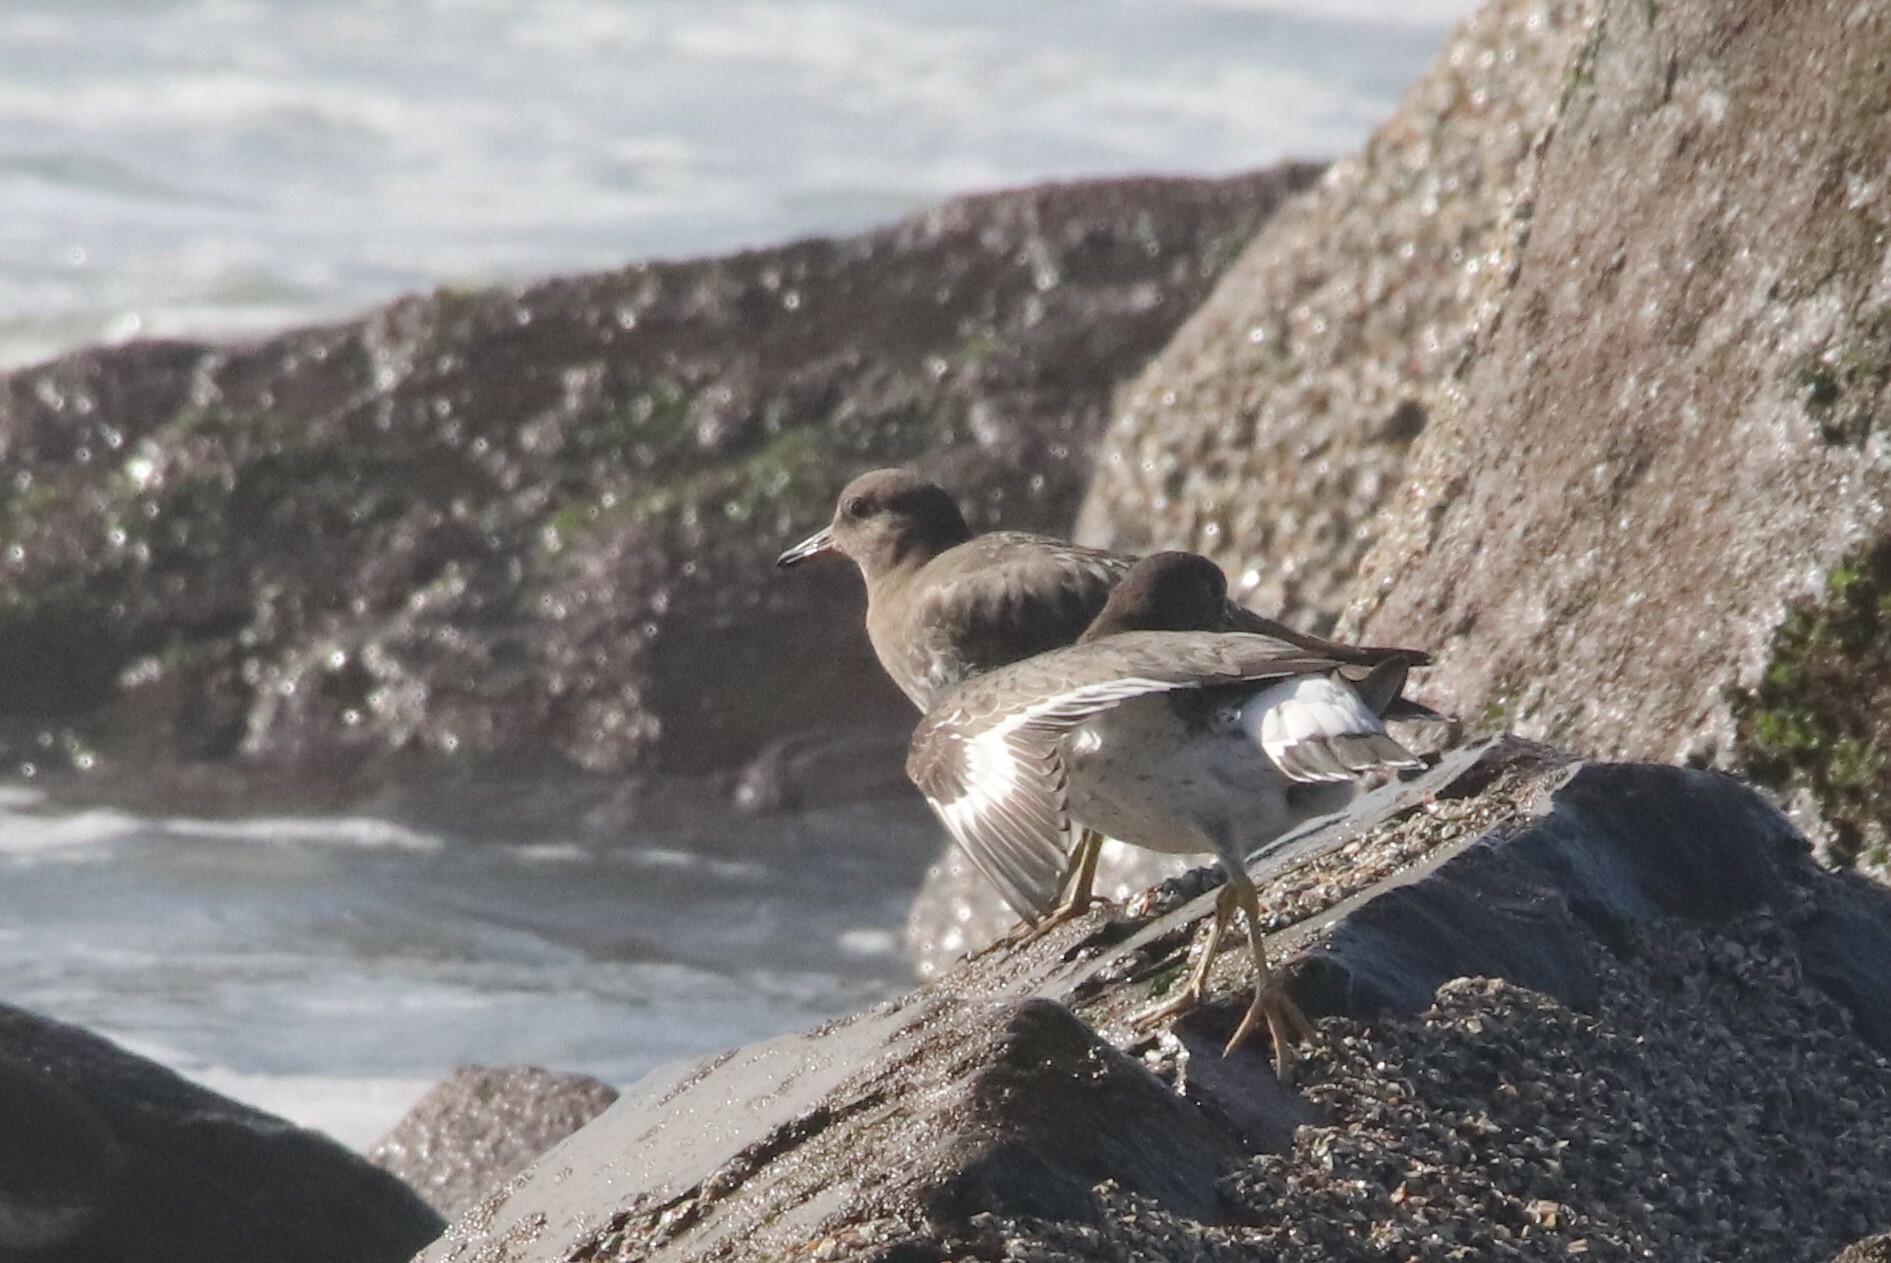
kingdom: Animalia
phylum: Chordata
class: Aves
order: Charadriiformes
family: Scolopacidae
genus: Calidris
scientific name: Calidris virgata
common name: Surfbird
